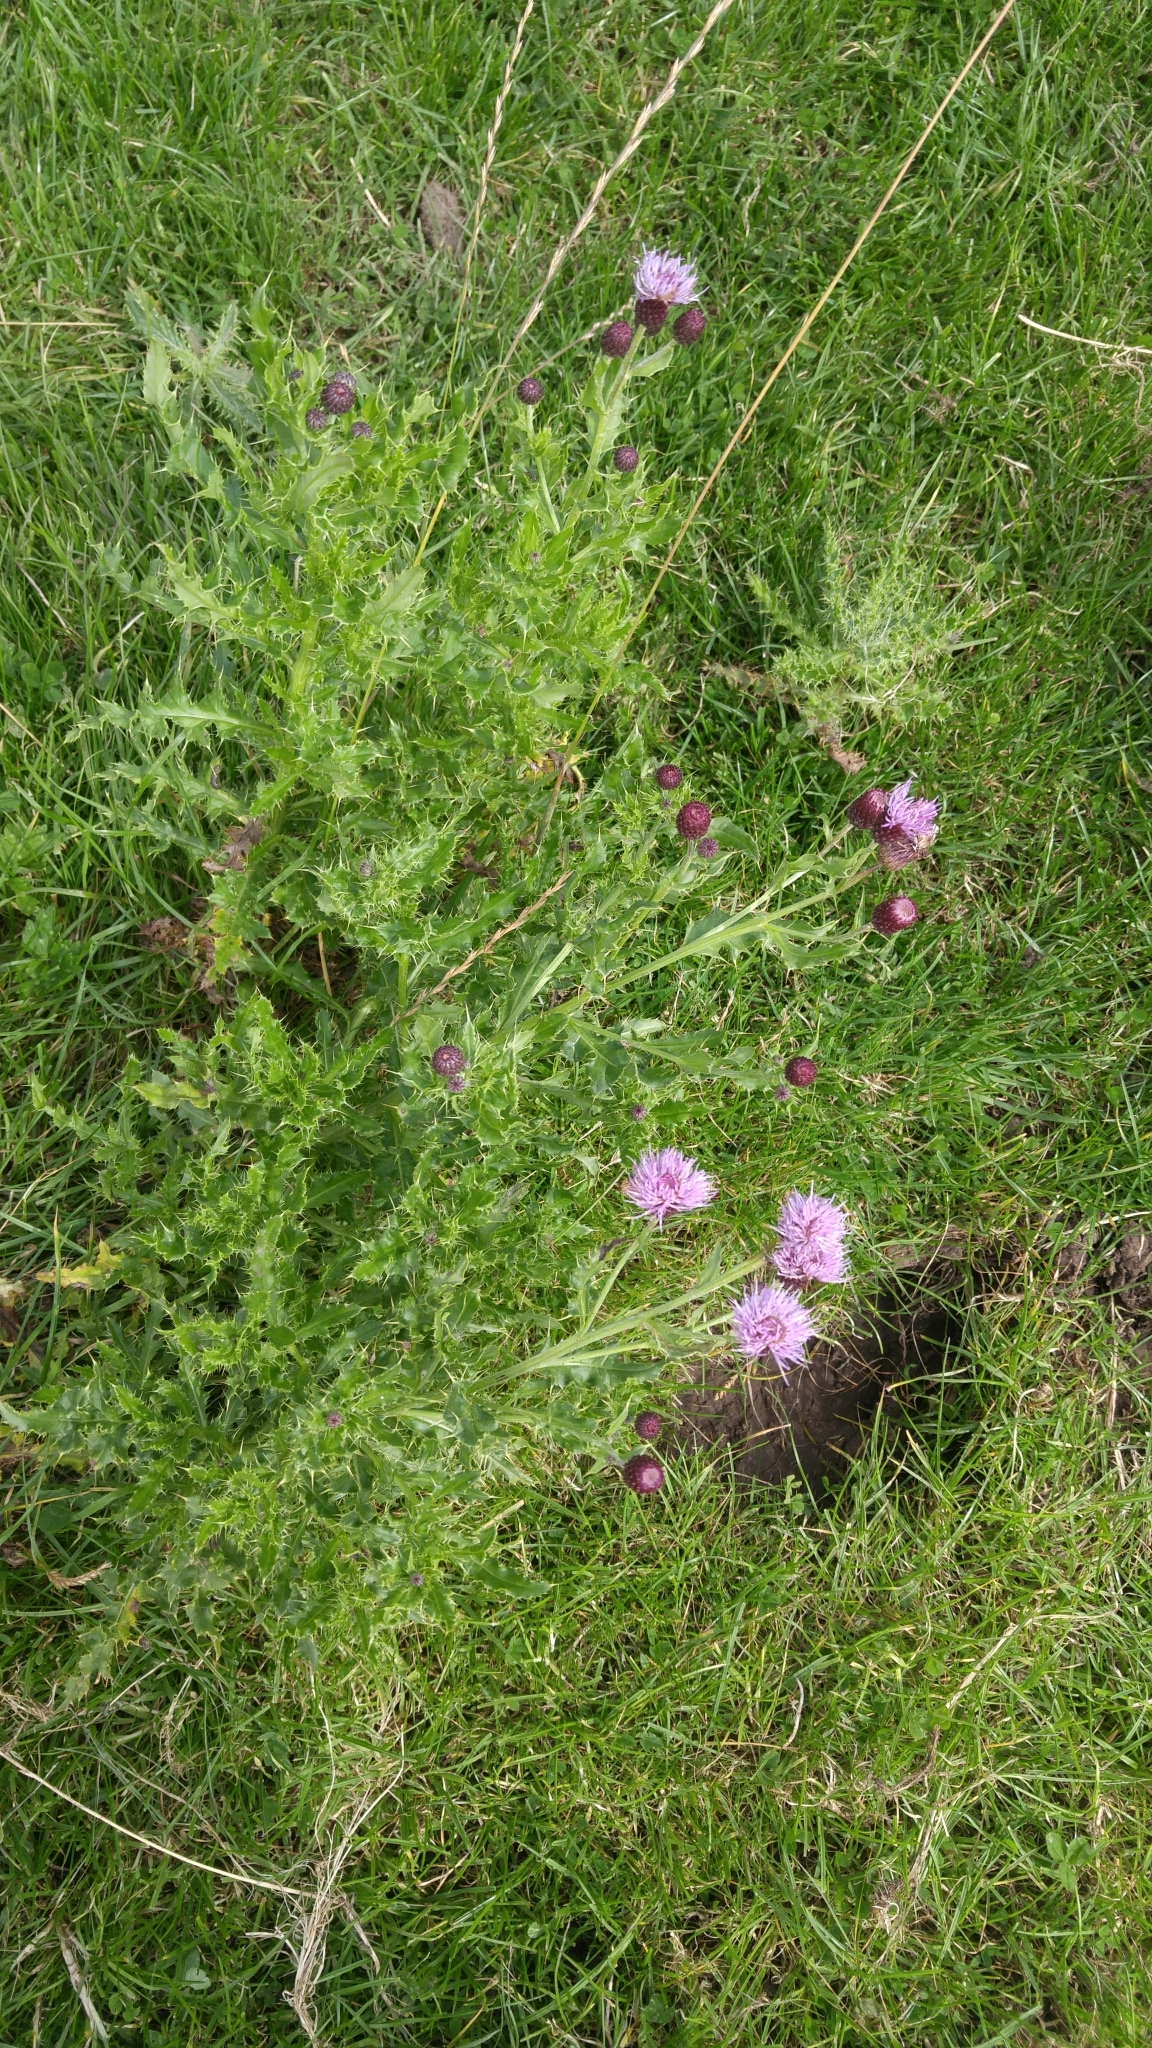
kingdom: Plantae
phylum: Tracheophyta
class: Magnoliopsida
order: Asterales
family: Asteraceae
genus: Cirsium
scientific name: Cirsium arvense
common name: Creeping thistle
